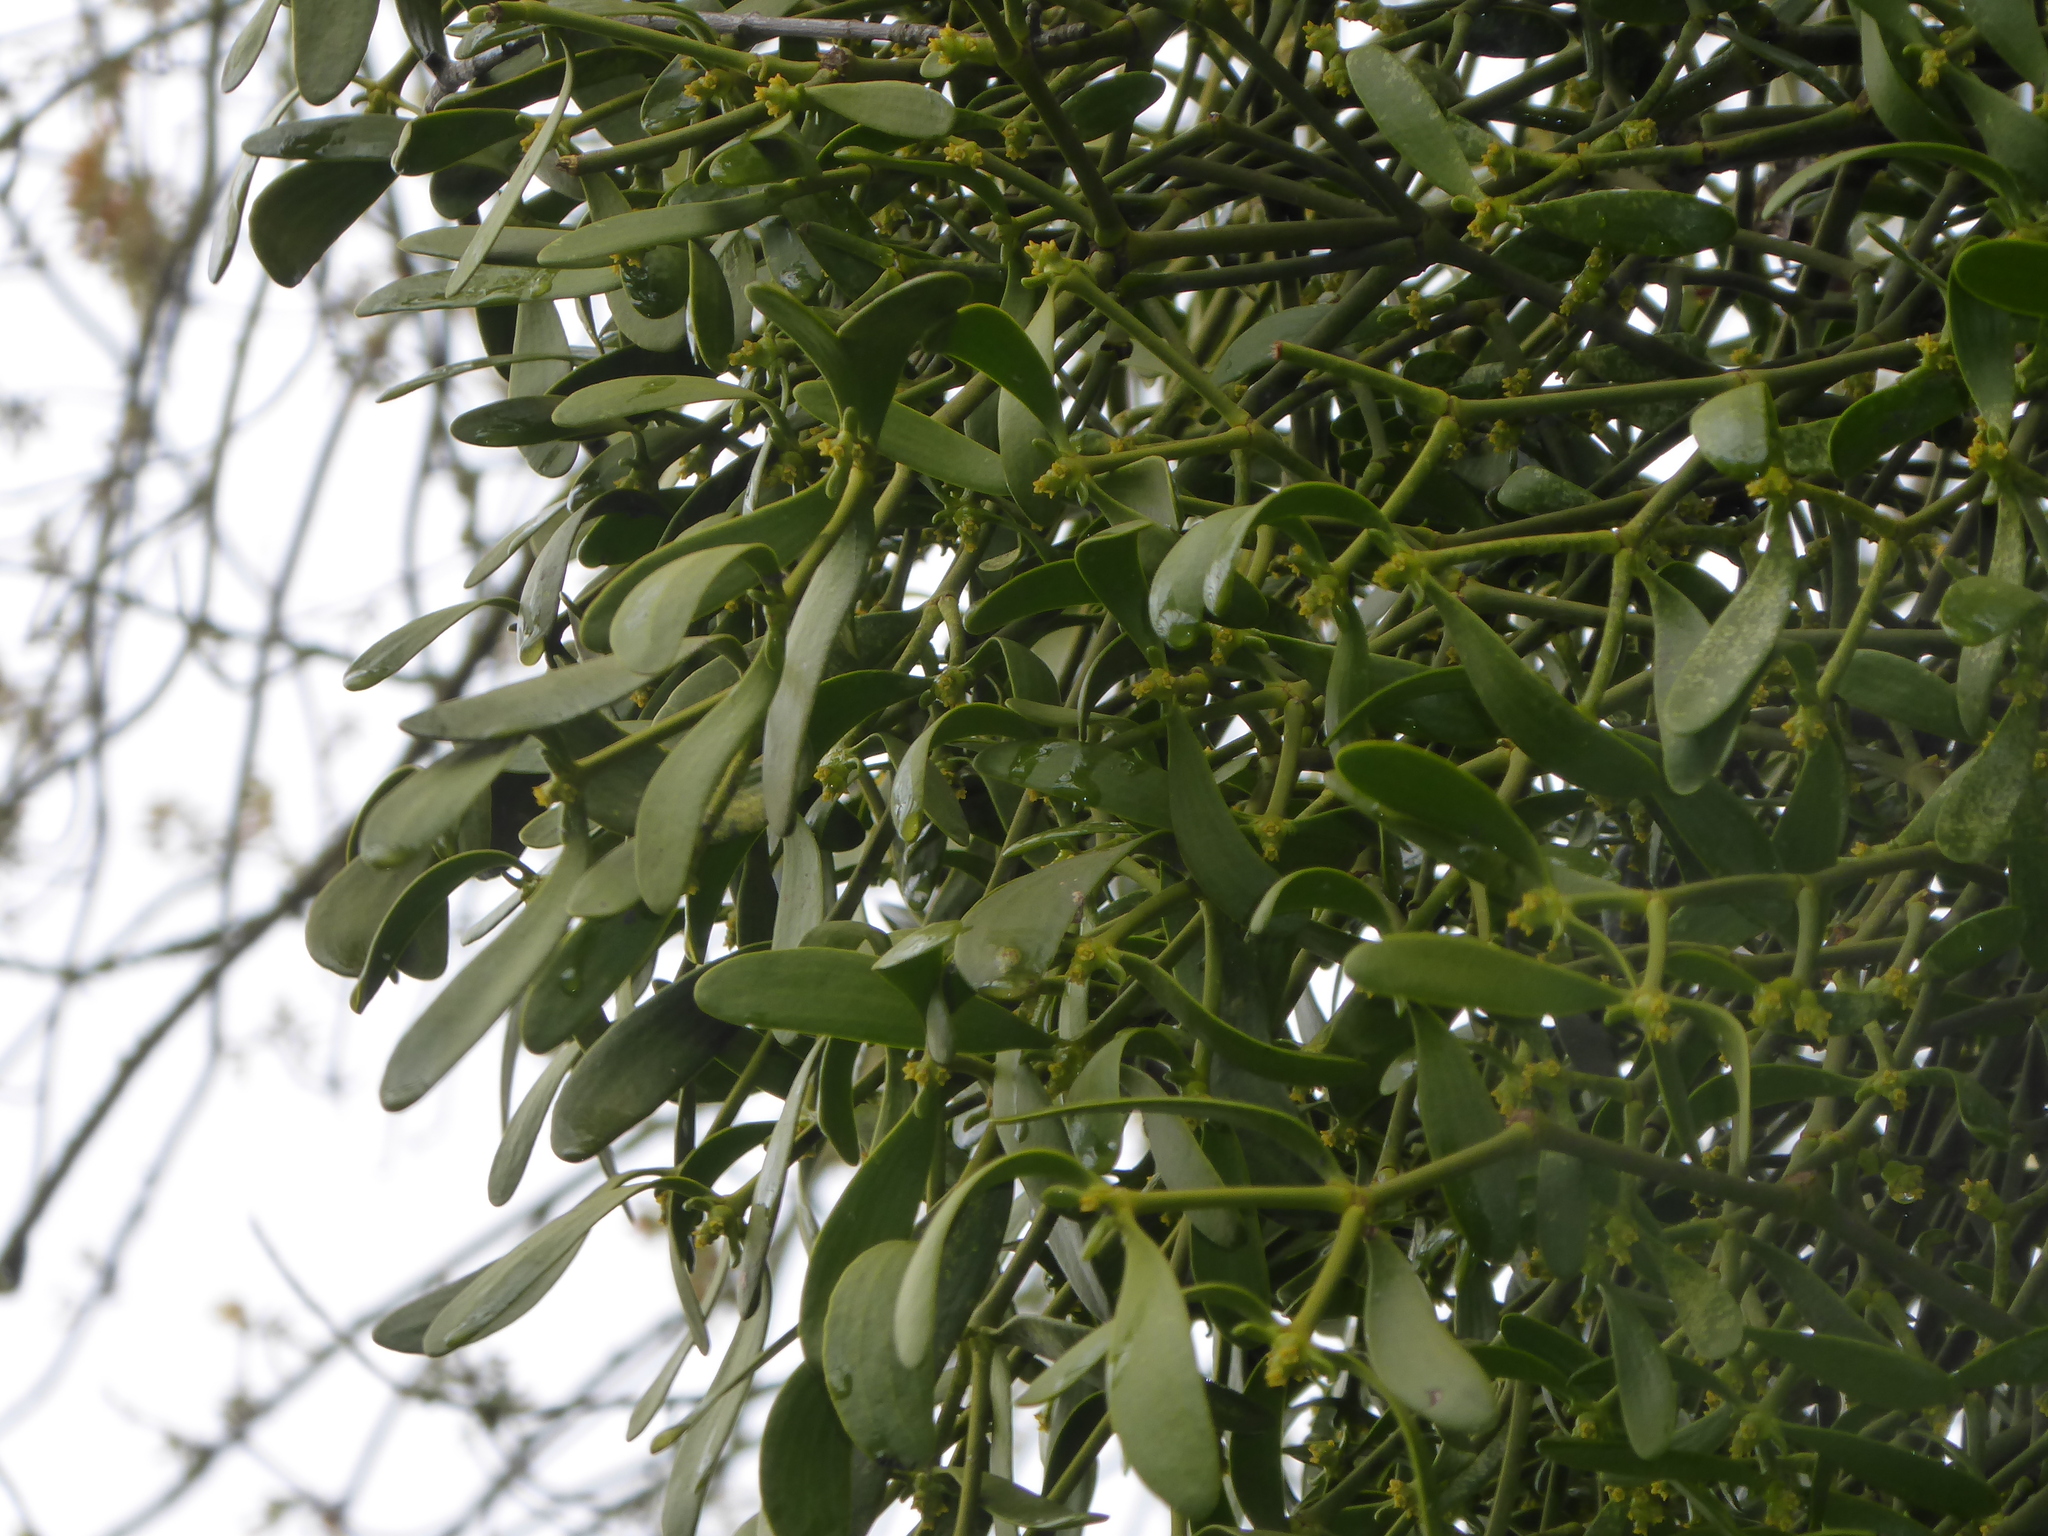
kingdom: Plantae
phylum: Tracheophyta
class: Magnoliopsida
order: Santalales
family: Viscaceae
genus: Viscum
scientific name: Viscum album
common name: Mistletoe
